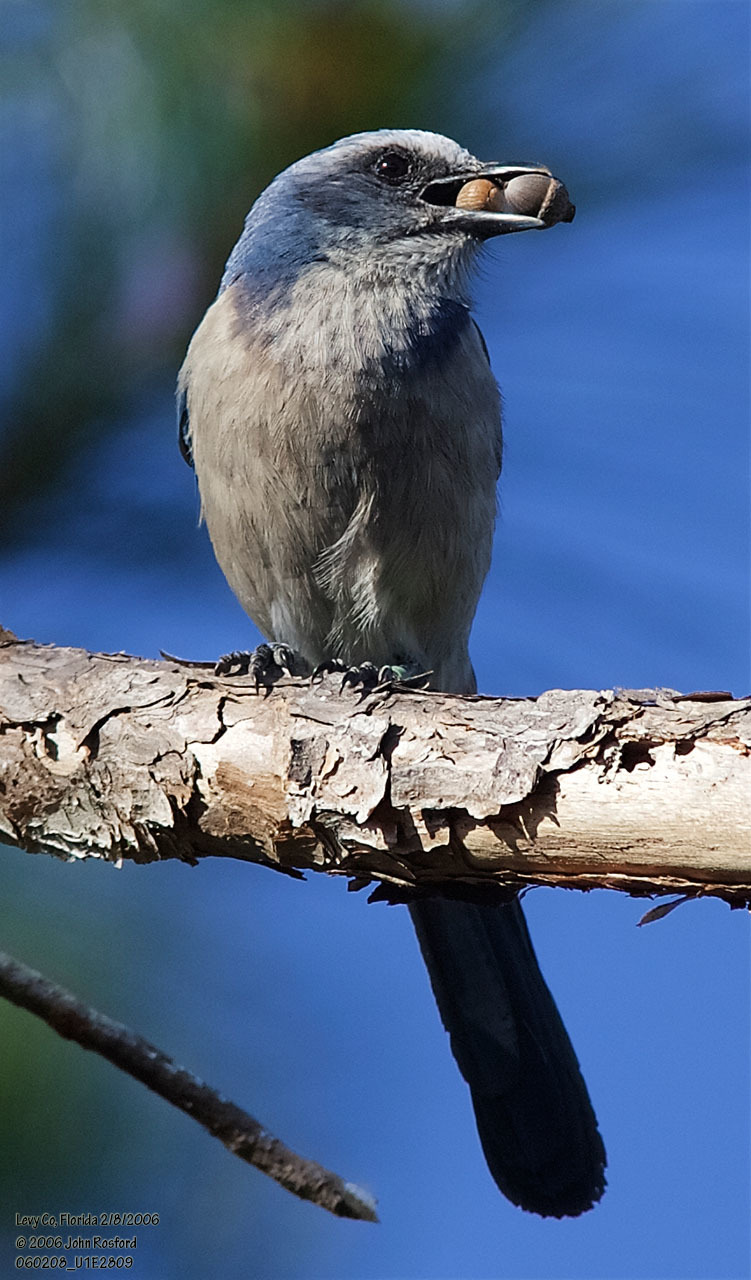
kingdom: Animalia
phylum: Chordata
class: Aves
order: Passeriformes
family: Corvidae
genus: Aphelocoma
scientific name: Aphelocoma coerulescens
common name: Florida scrub jay
